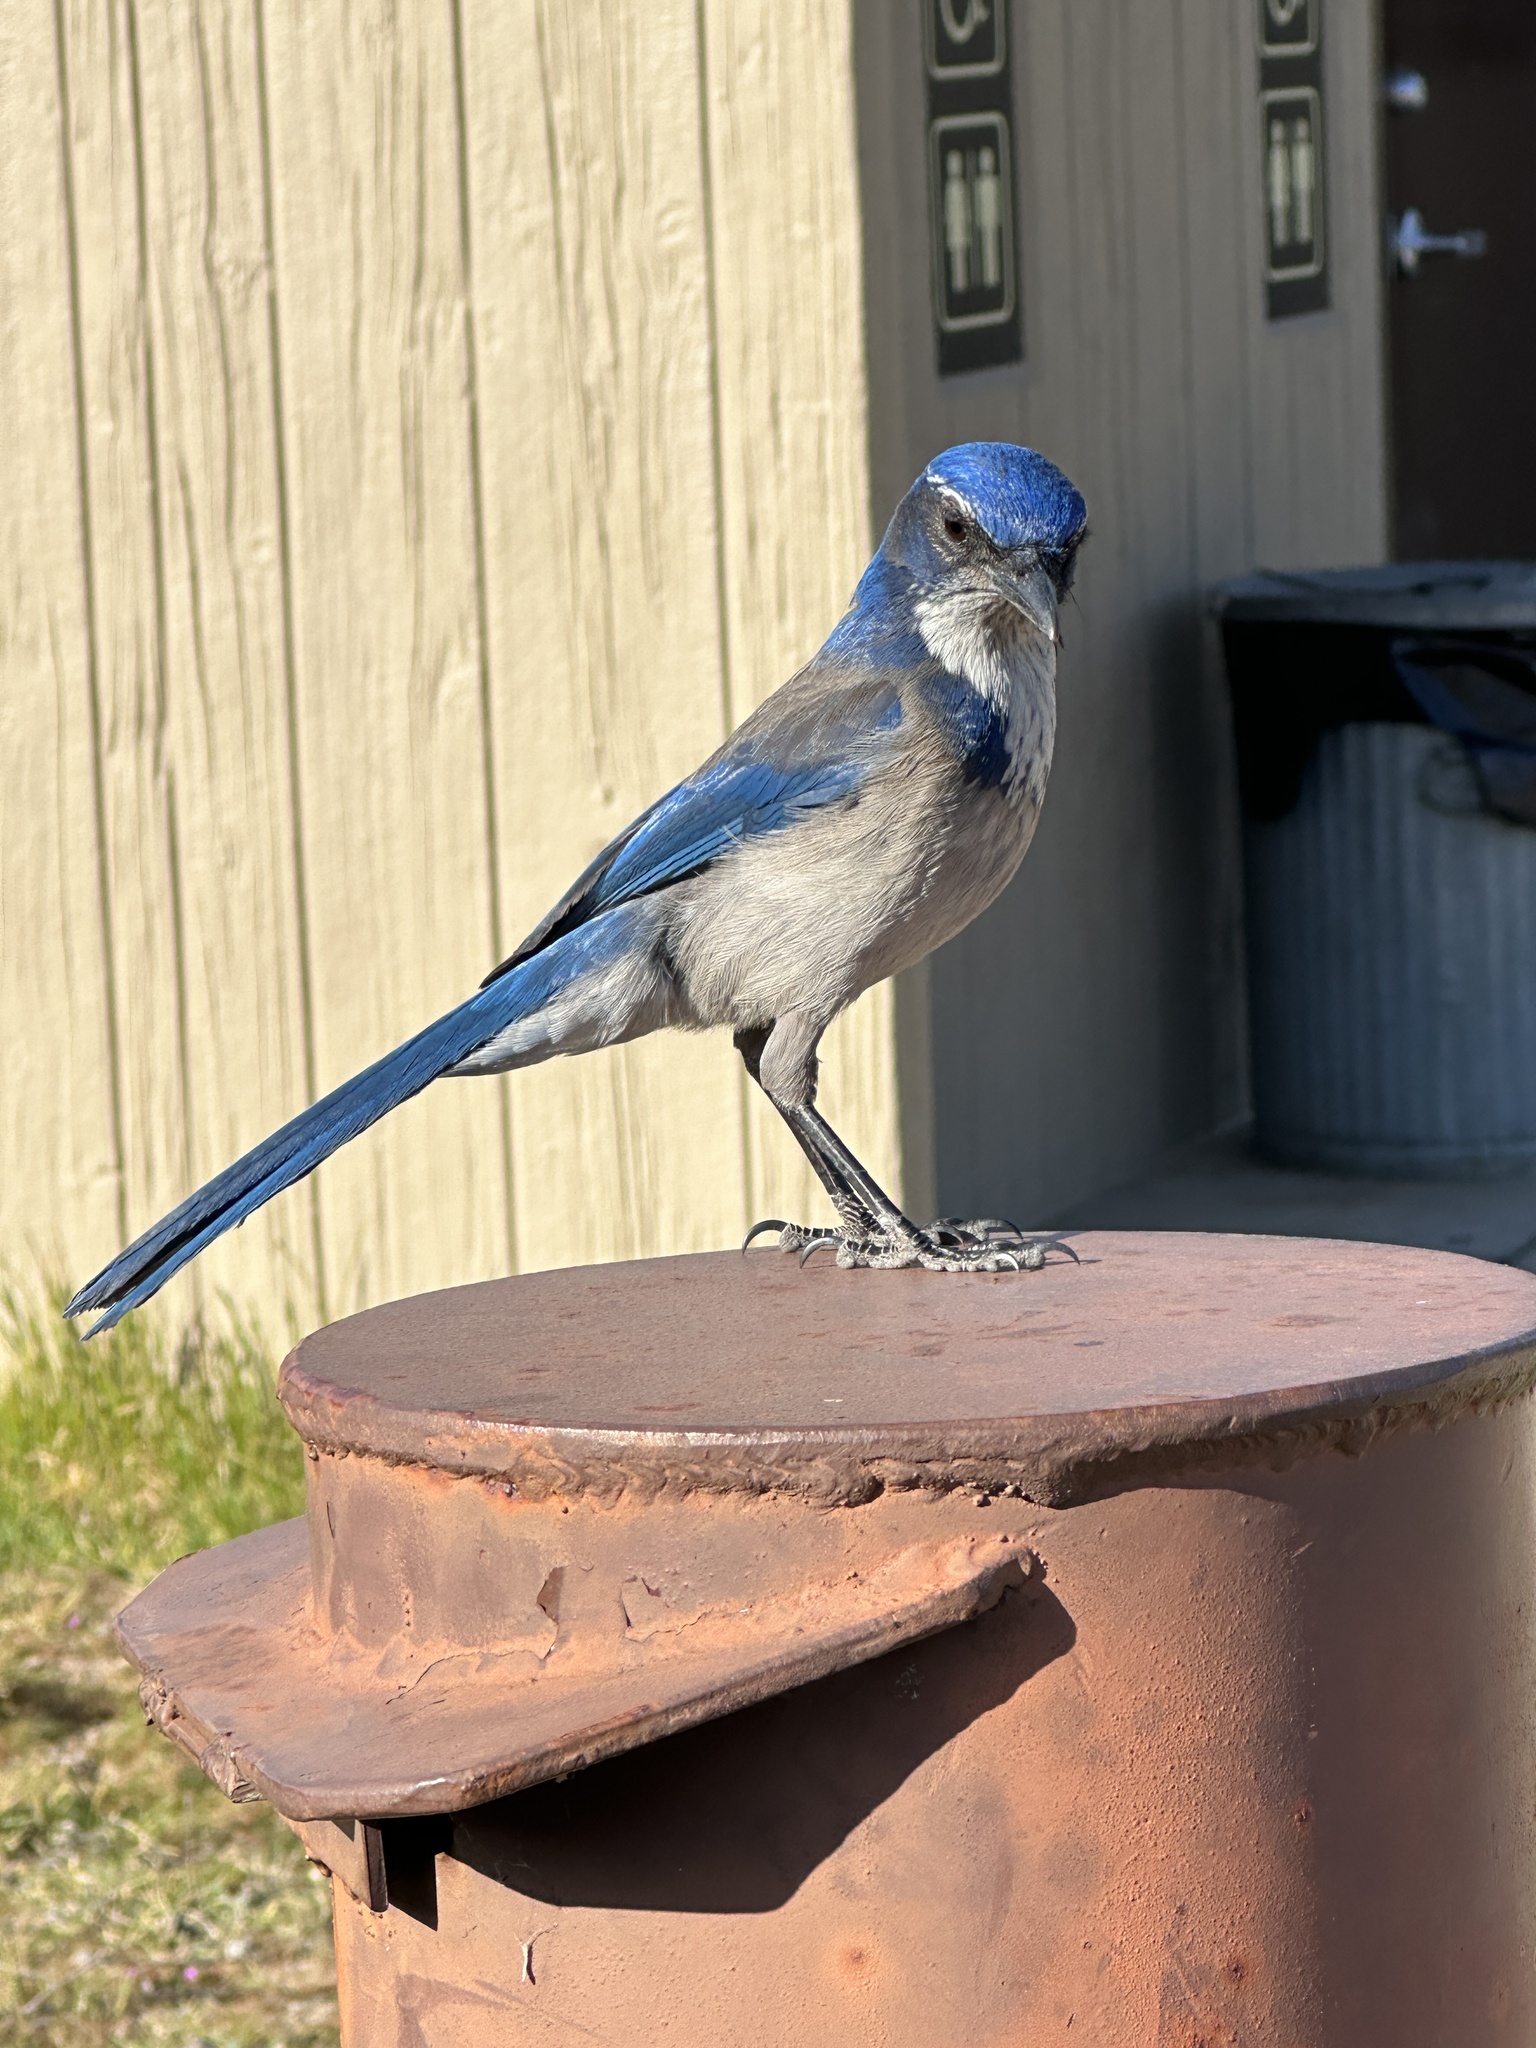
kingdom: Animalia
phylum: Chordata
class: Aves
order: Passeriformes
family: Corvidae
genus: Aphelocoma
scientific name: Aphelocoma californica
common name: California scrub-jay
